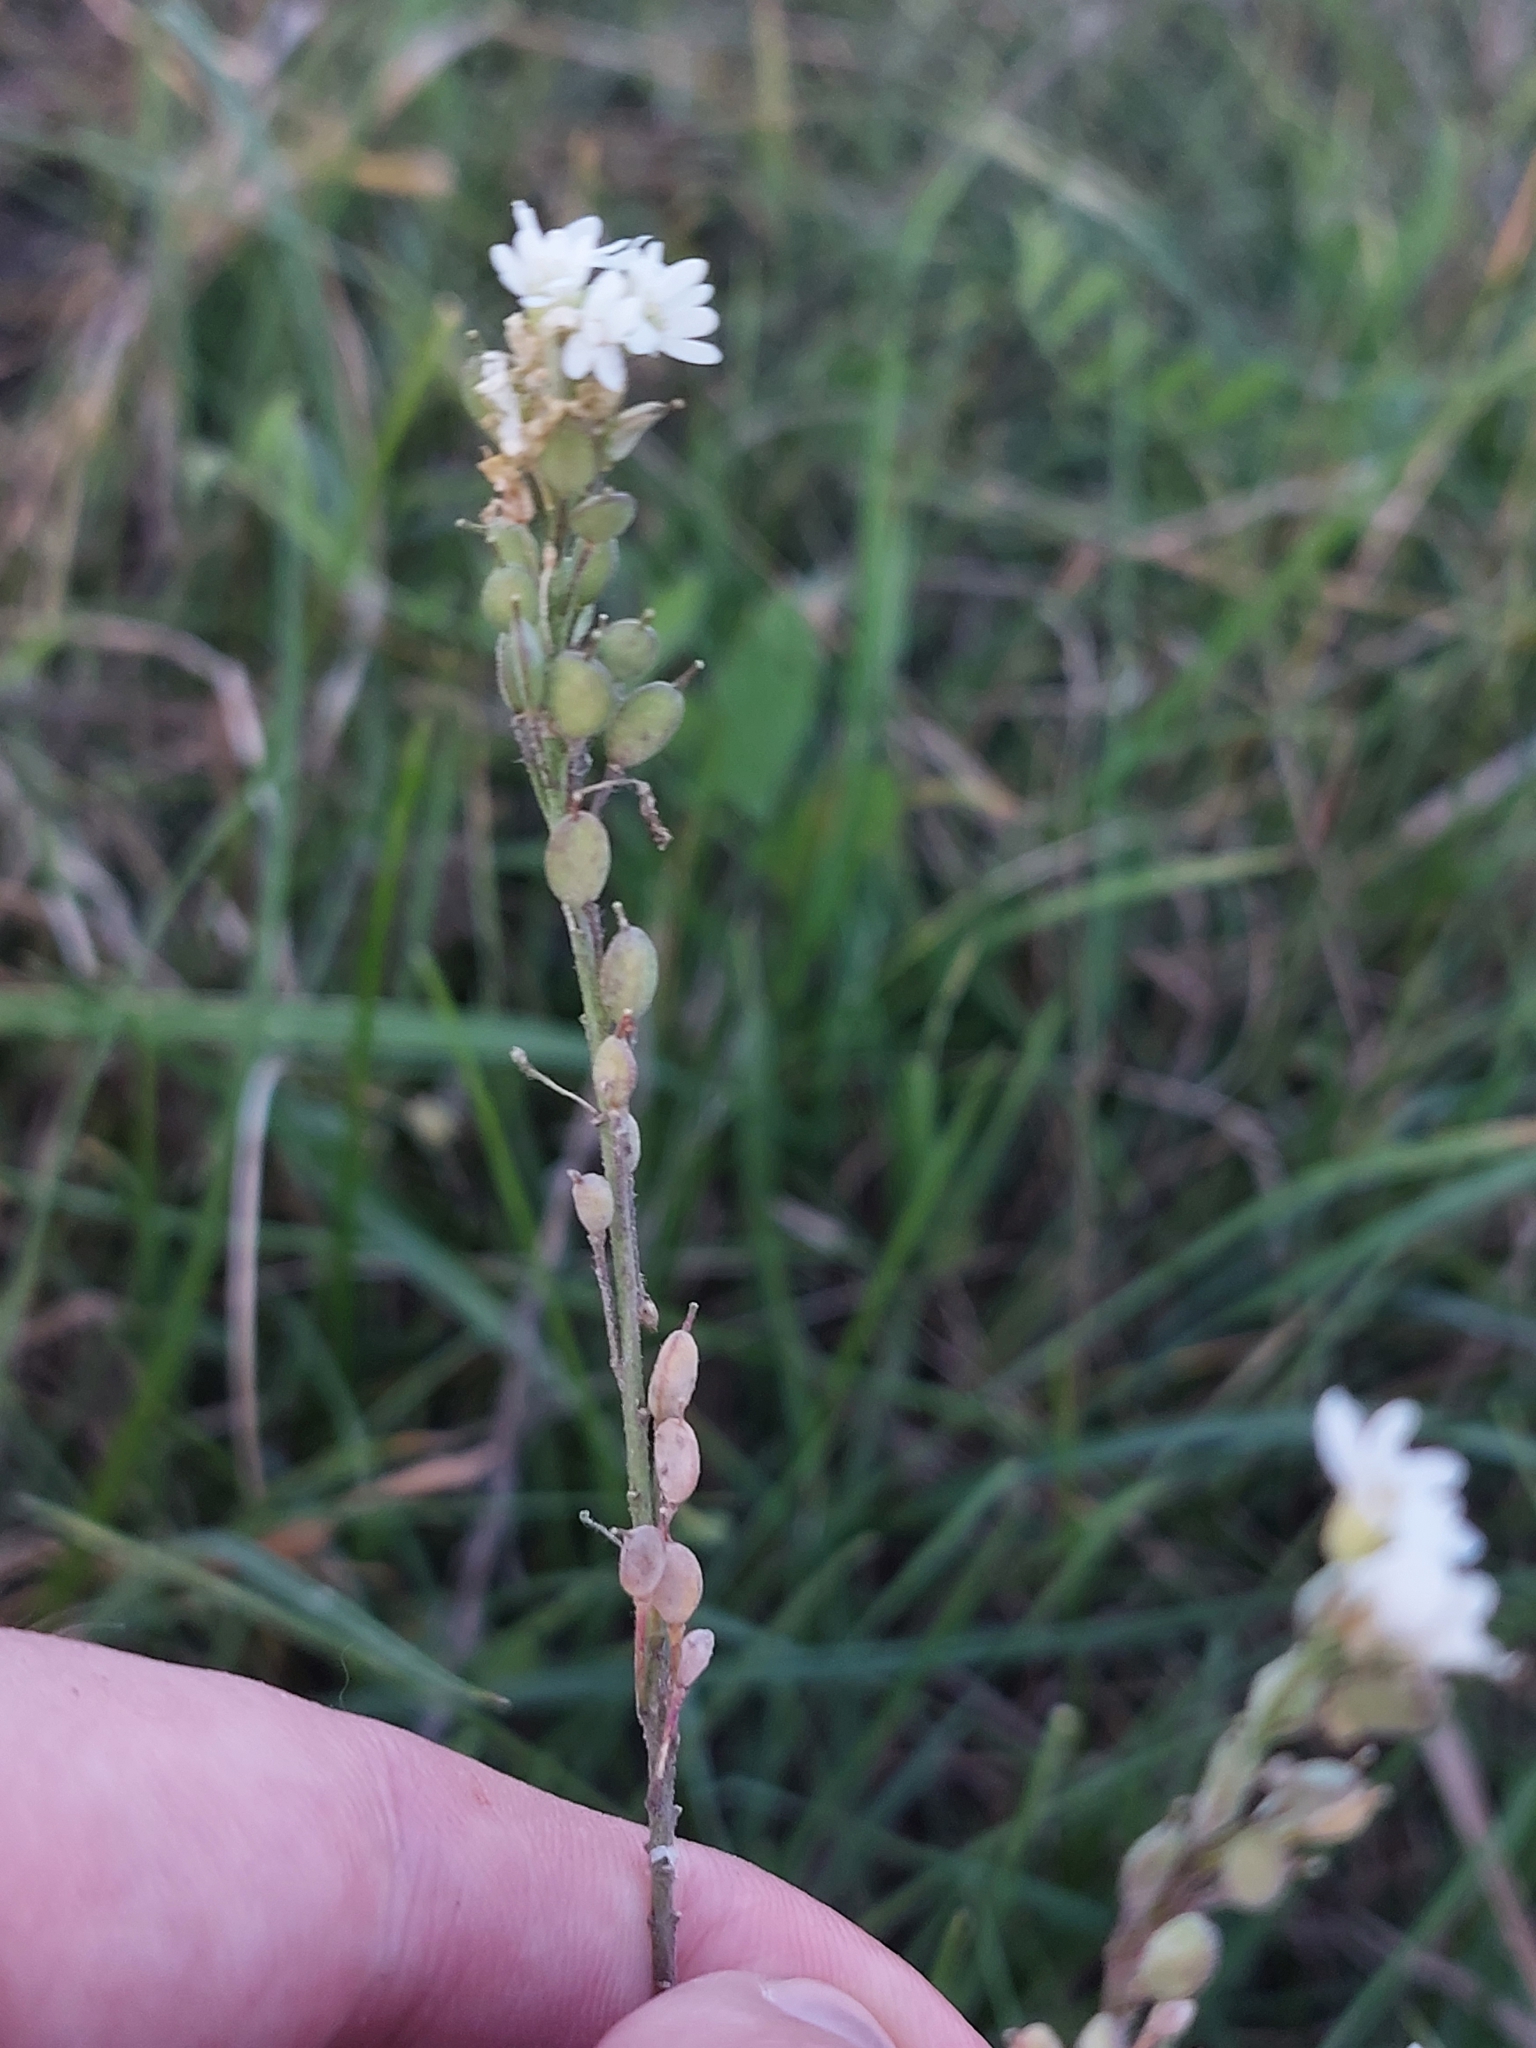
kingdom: Plantae
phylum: Tracheophyta
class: Magnoliopsida
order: Brassicales
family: Brassicaceae
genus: Berteroa
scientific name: Berteroa incana
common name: Hoary alison
